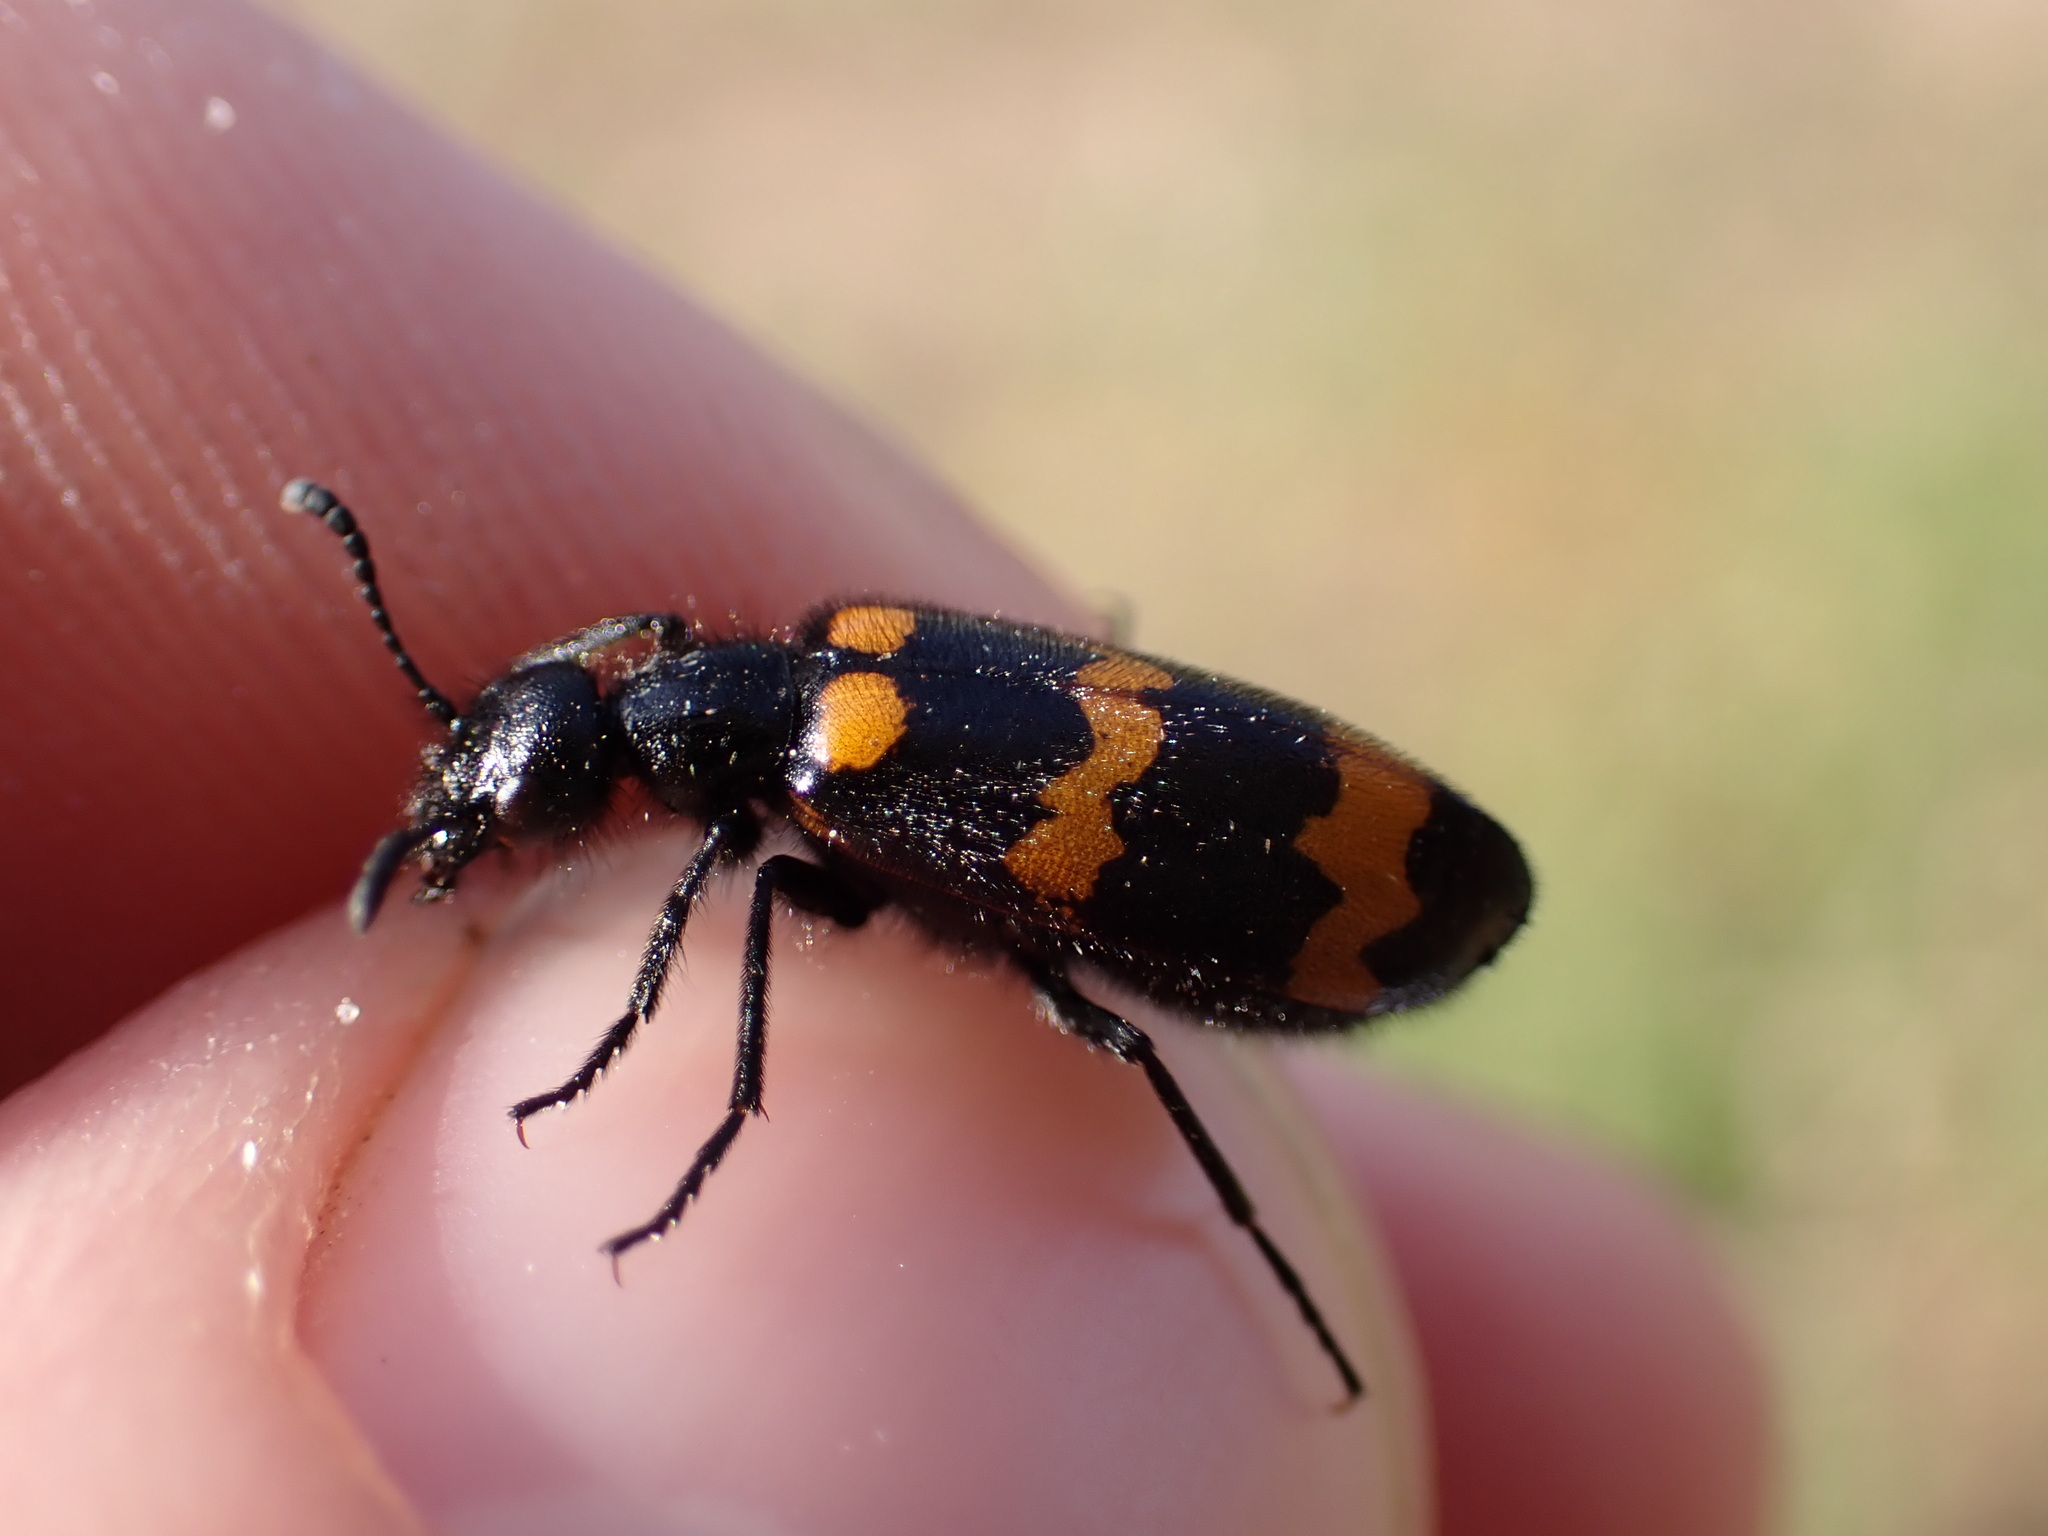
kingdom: Animalia
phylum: Arthropoda
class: Insecta
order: Coleoptera
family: Meloidae
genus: Mylabris
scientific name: Mylabris variabilis
